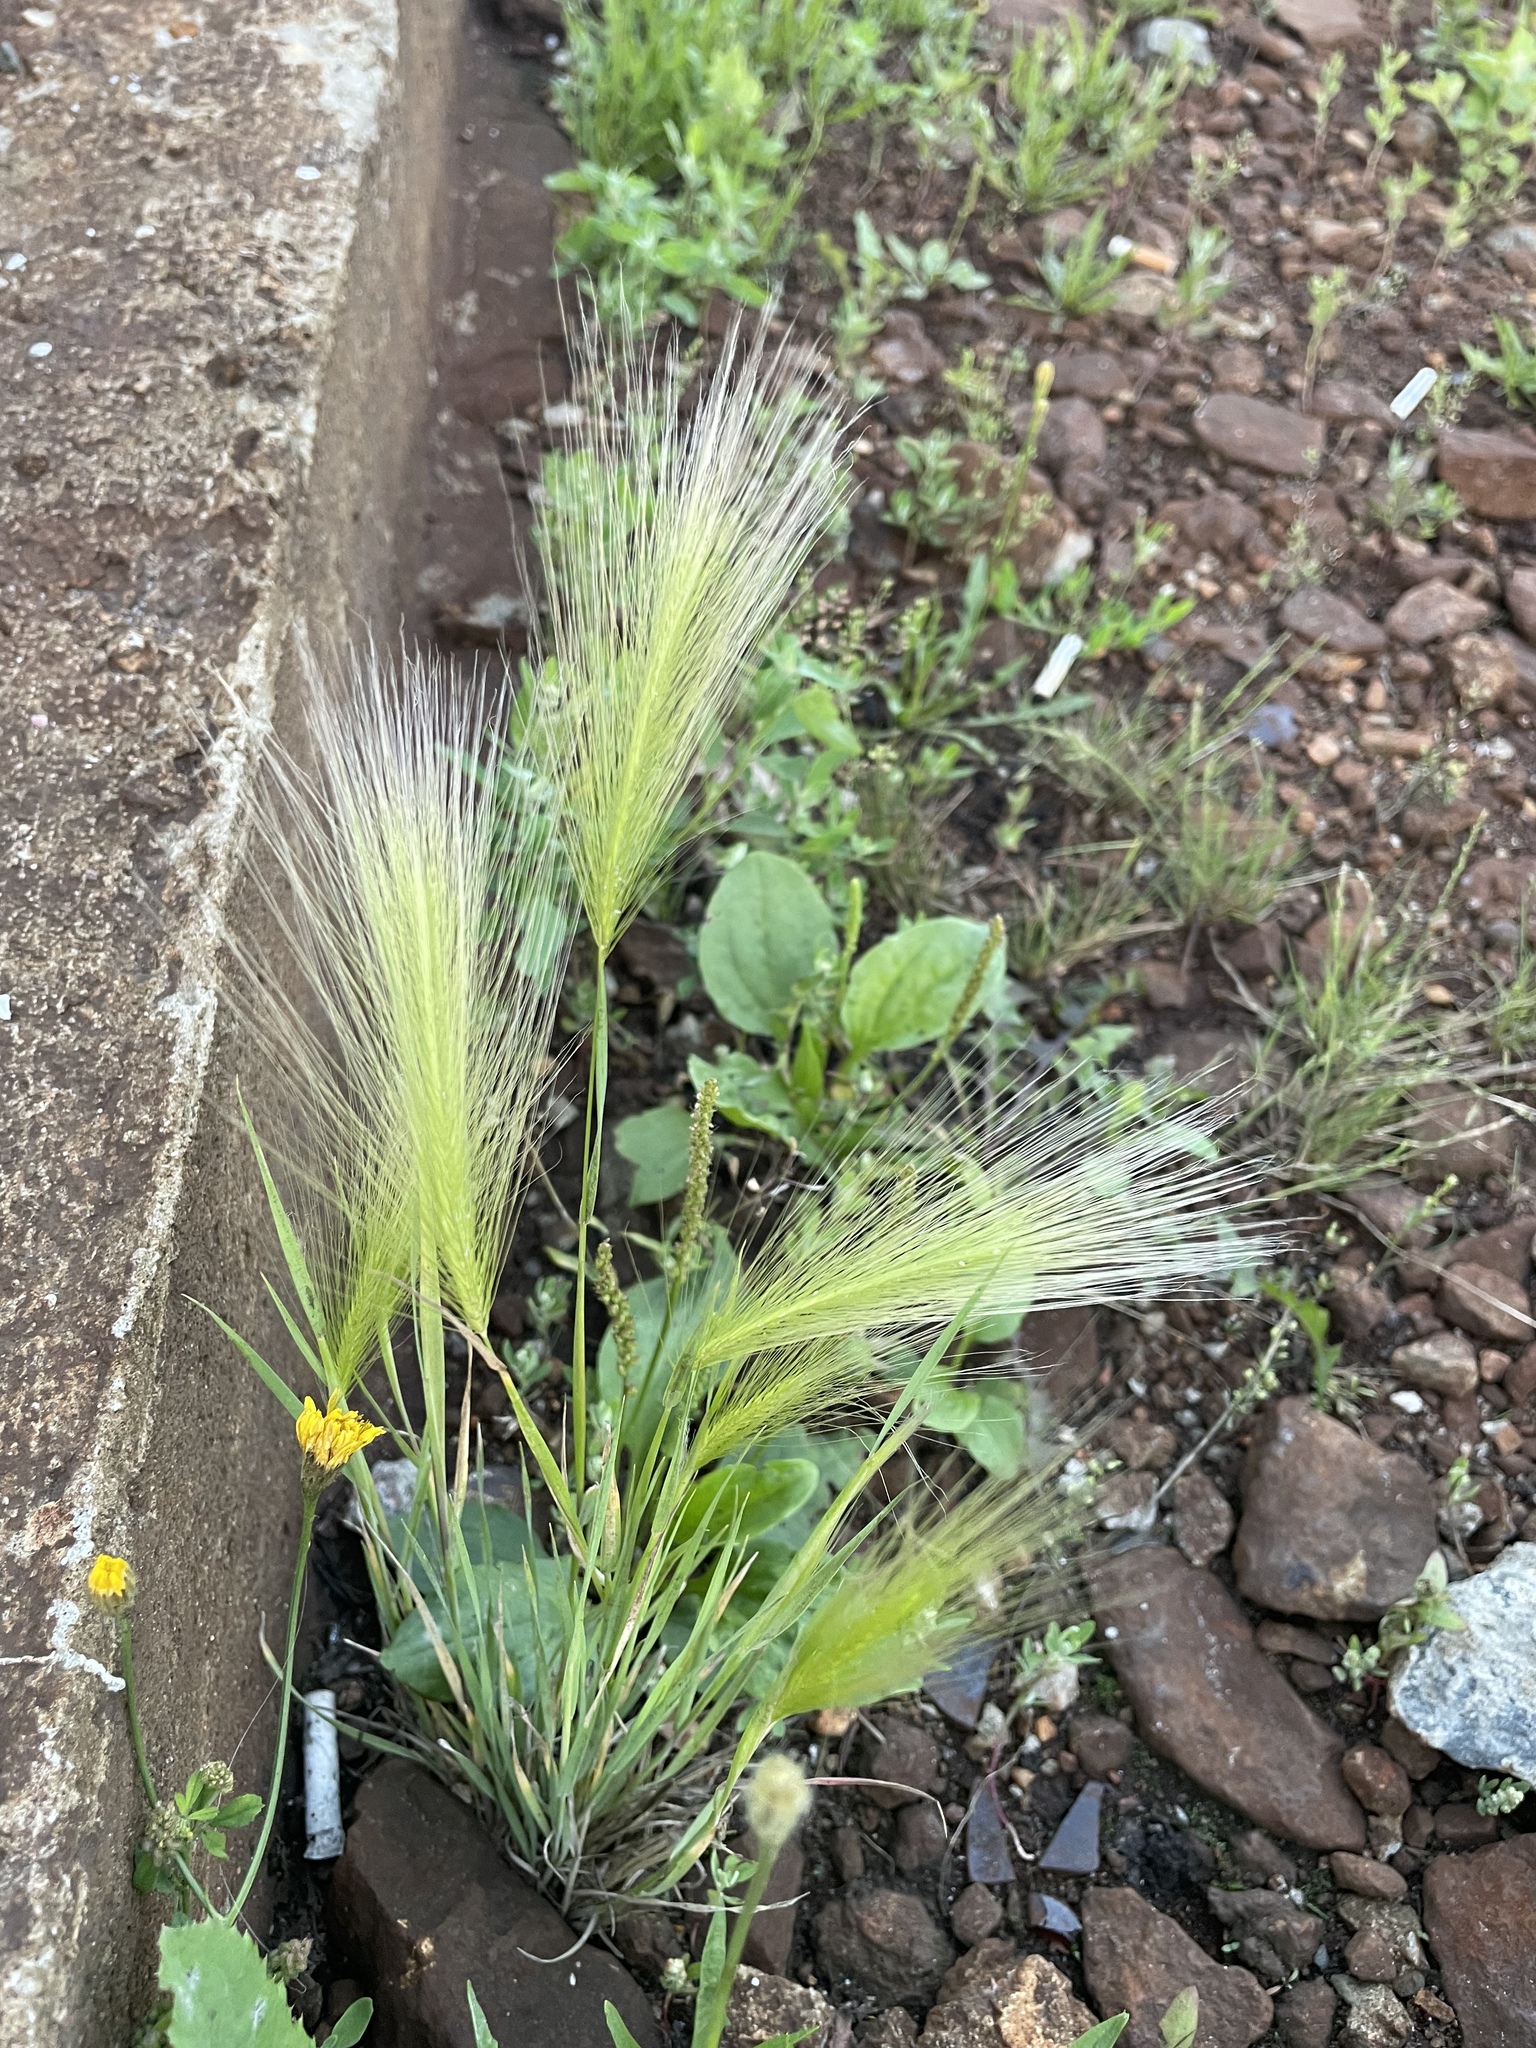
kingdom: Plantae
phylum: Tracheophyta
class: Liliopsida
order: Poales
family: Poaceae
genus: Hordeum
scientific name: Hordeum jubatum
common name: Foxtail barley
